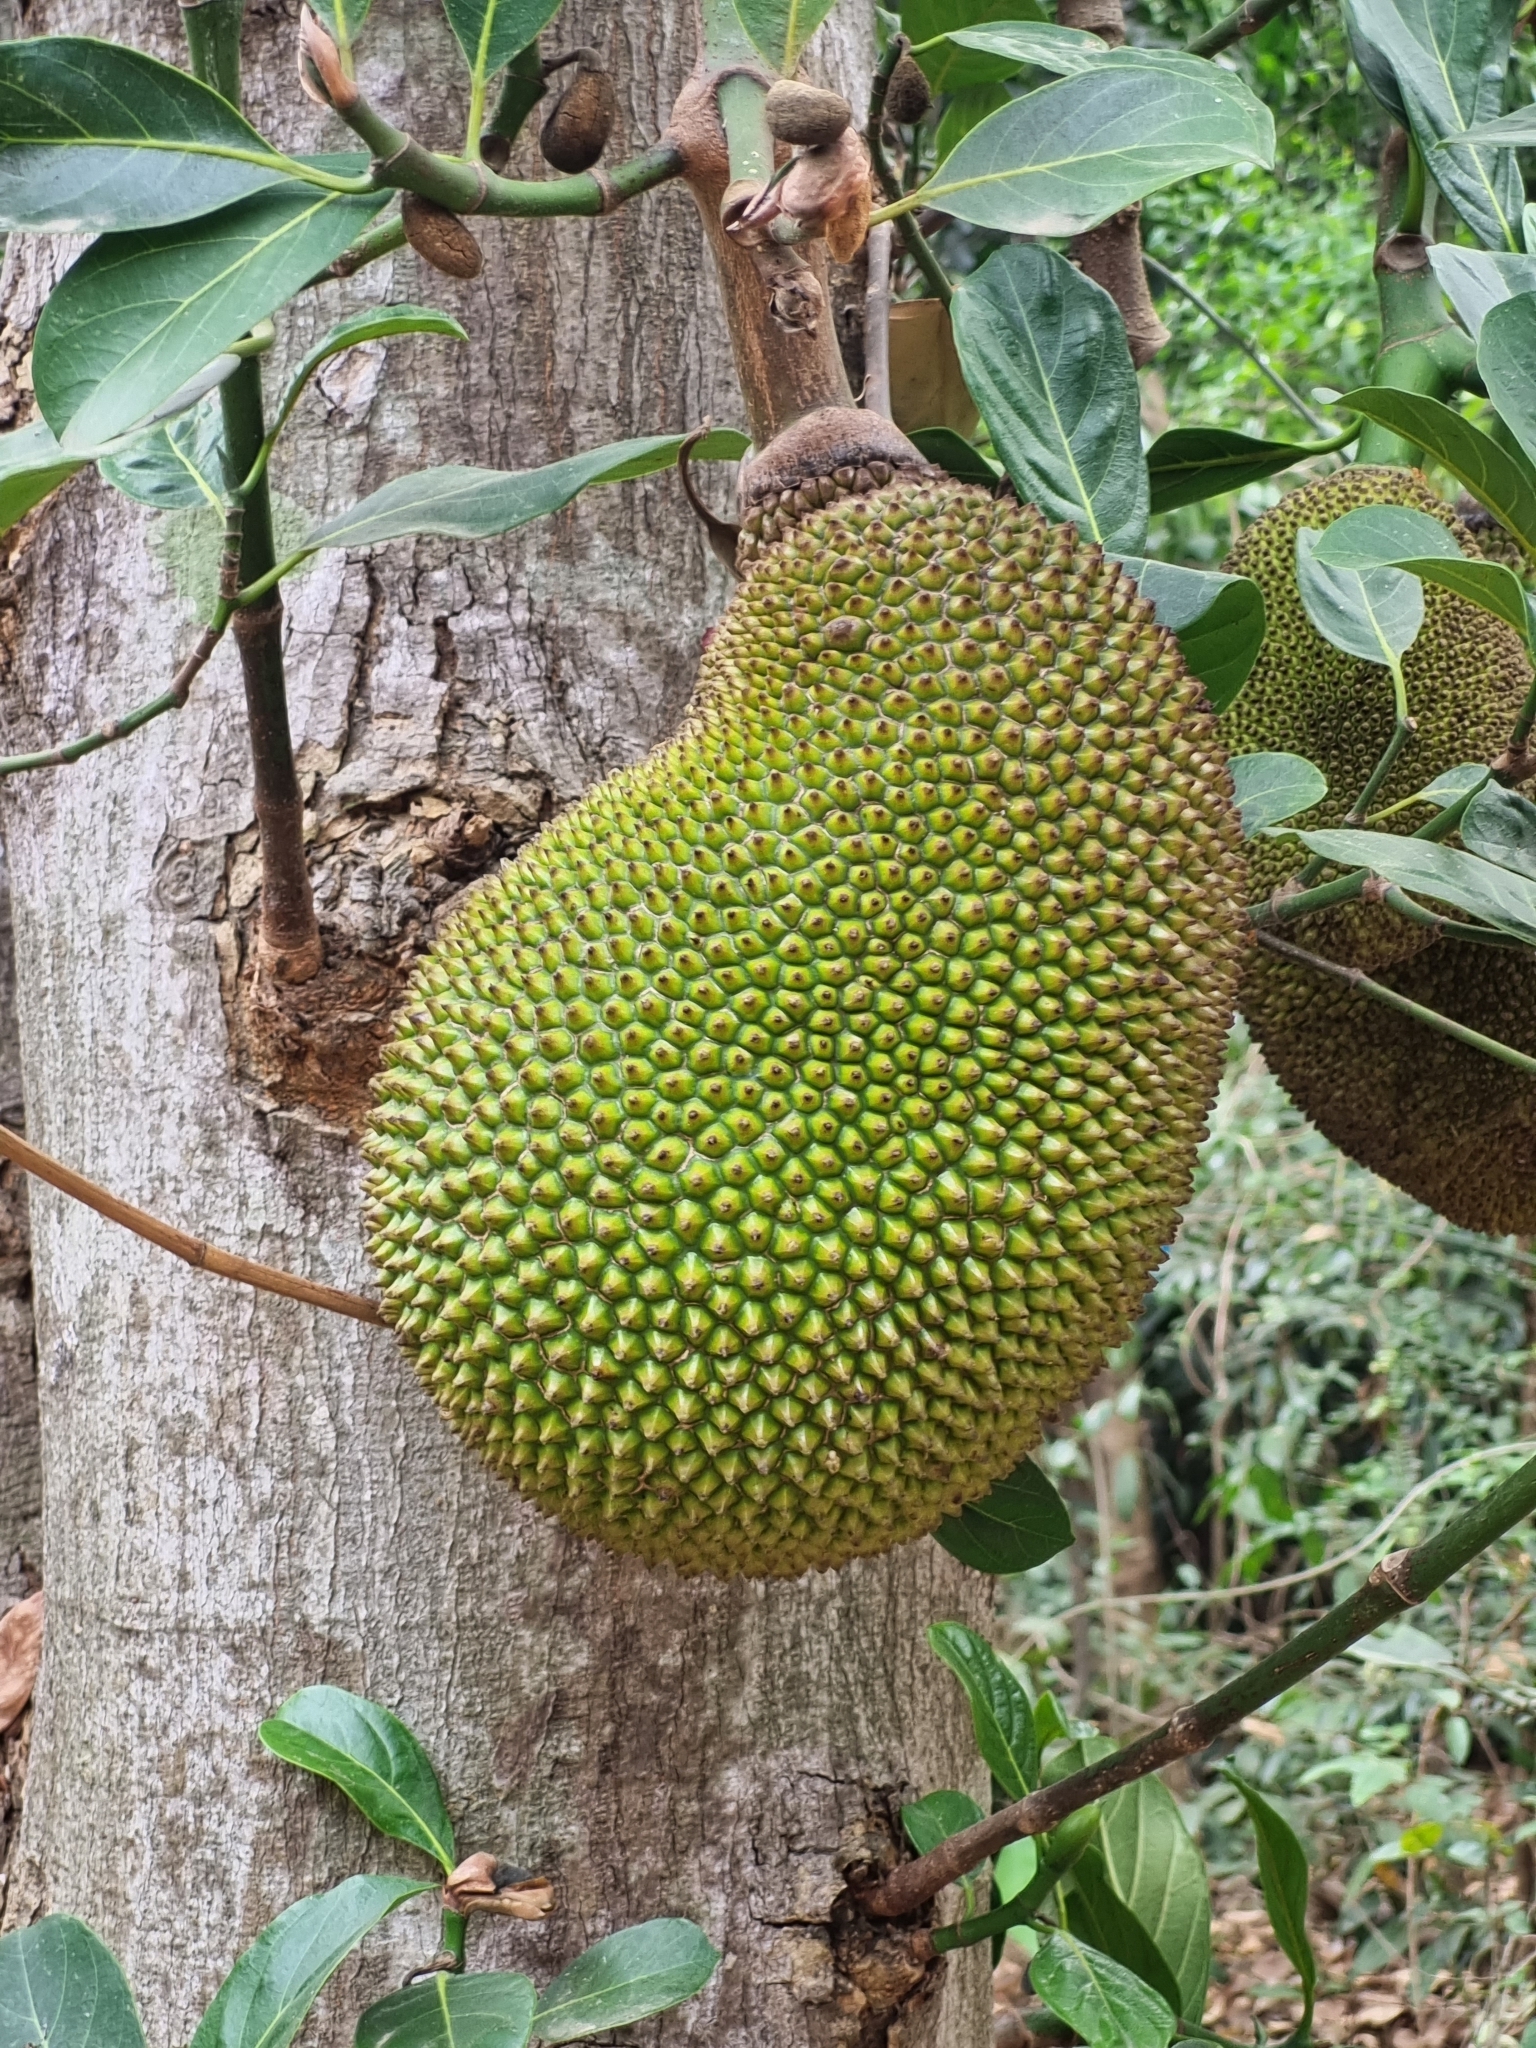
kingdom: Plantae
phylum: Tracheophyta
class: Magnoliopsida
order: Rosales
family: Moraceae
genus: Artocarpus
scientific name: Artocarpus heterophyllus
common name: Jackfruit
